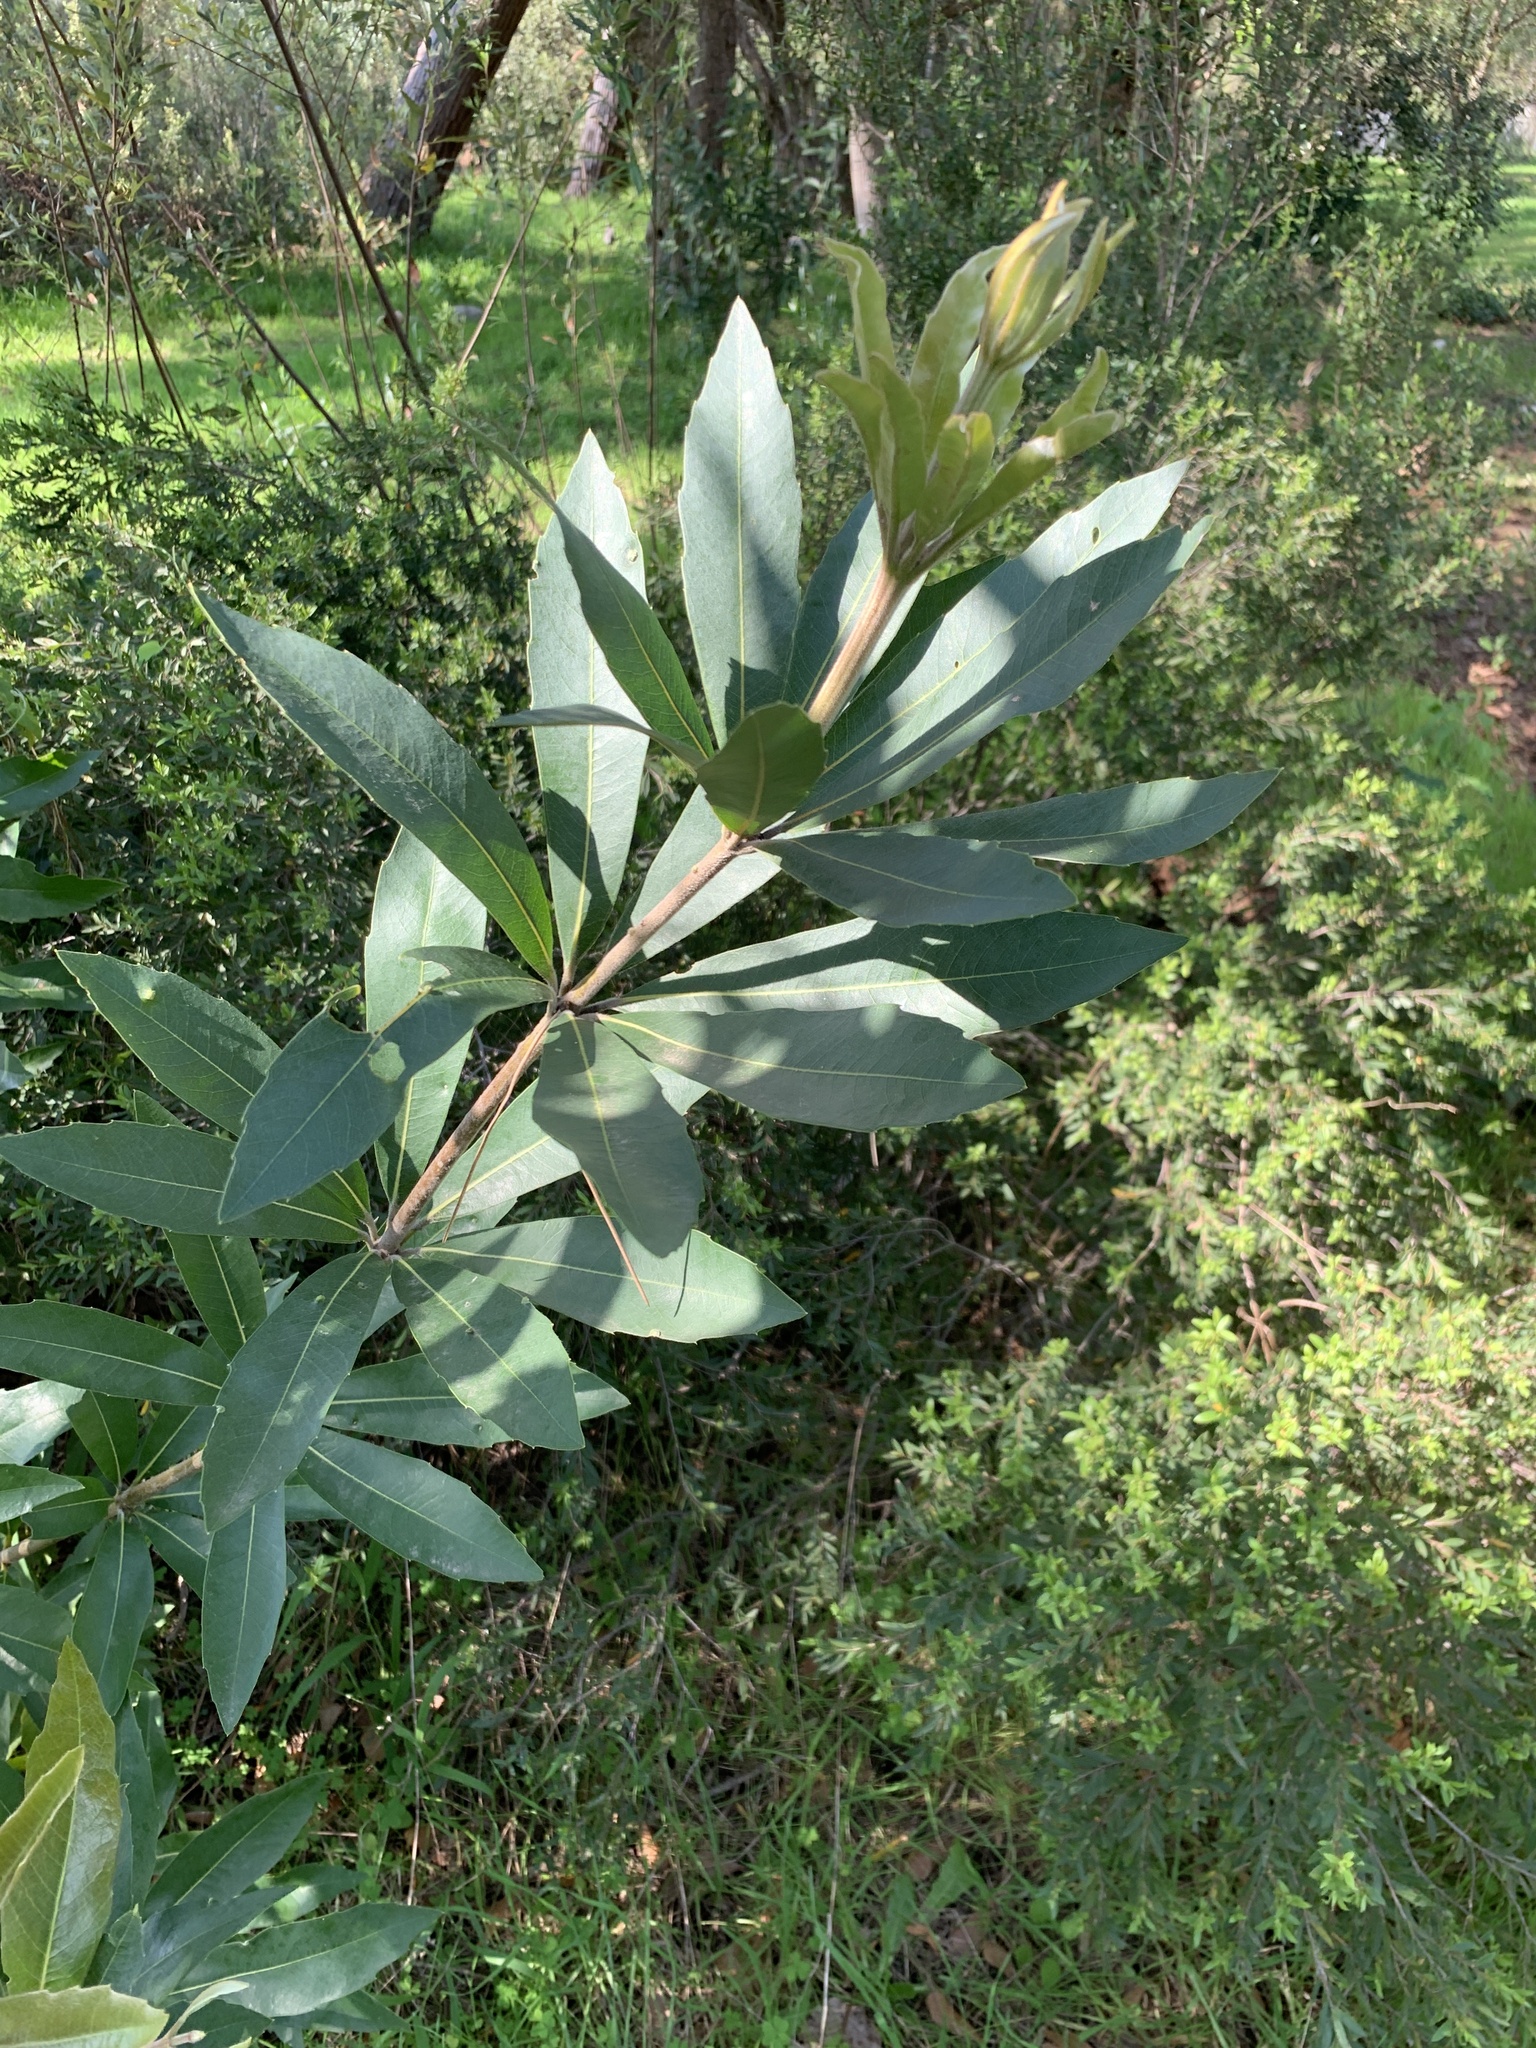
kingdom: Plantae
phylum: Tracheophyta
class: Magnoliopsida
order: Proteales
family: Proteaceae
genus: Brabejum
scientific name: Brabejum stellatifolium
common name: Wild almond
